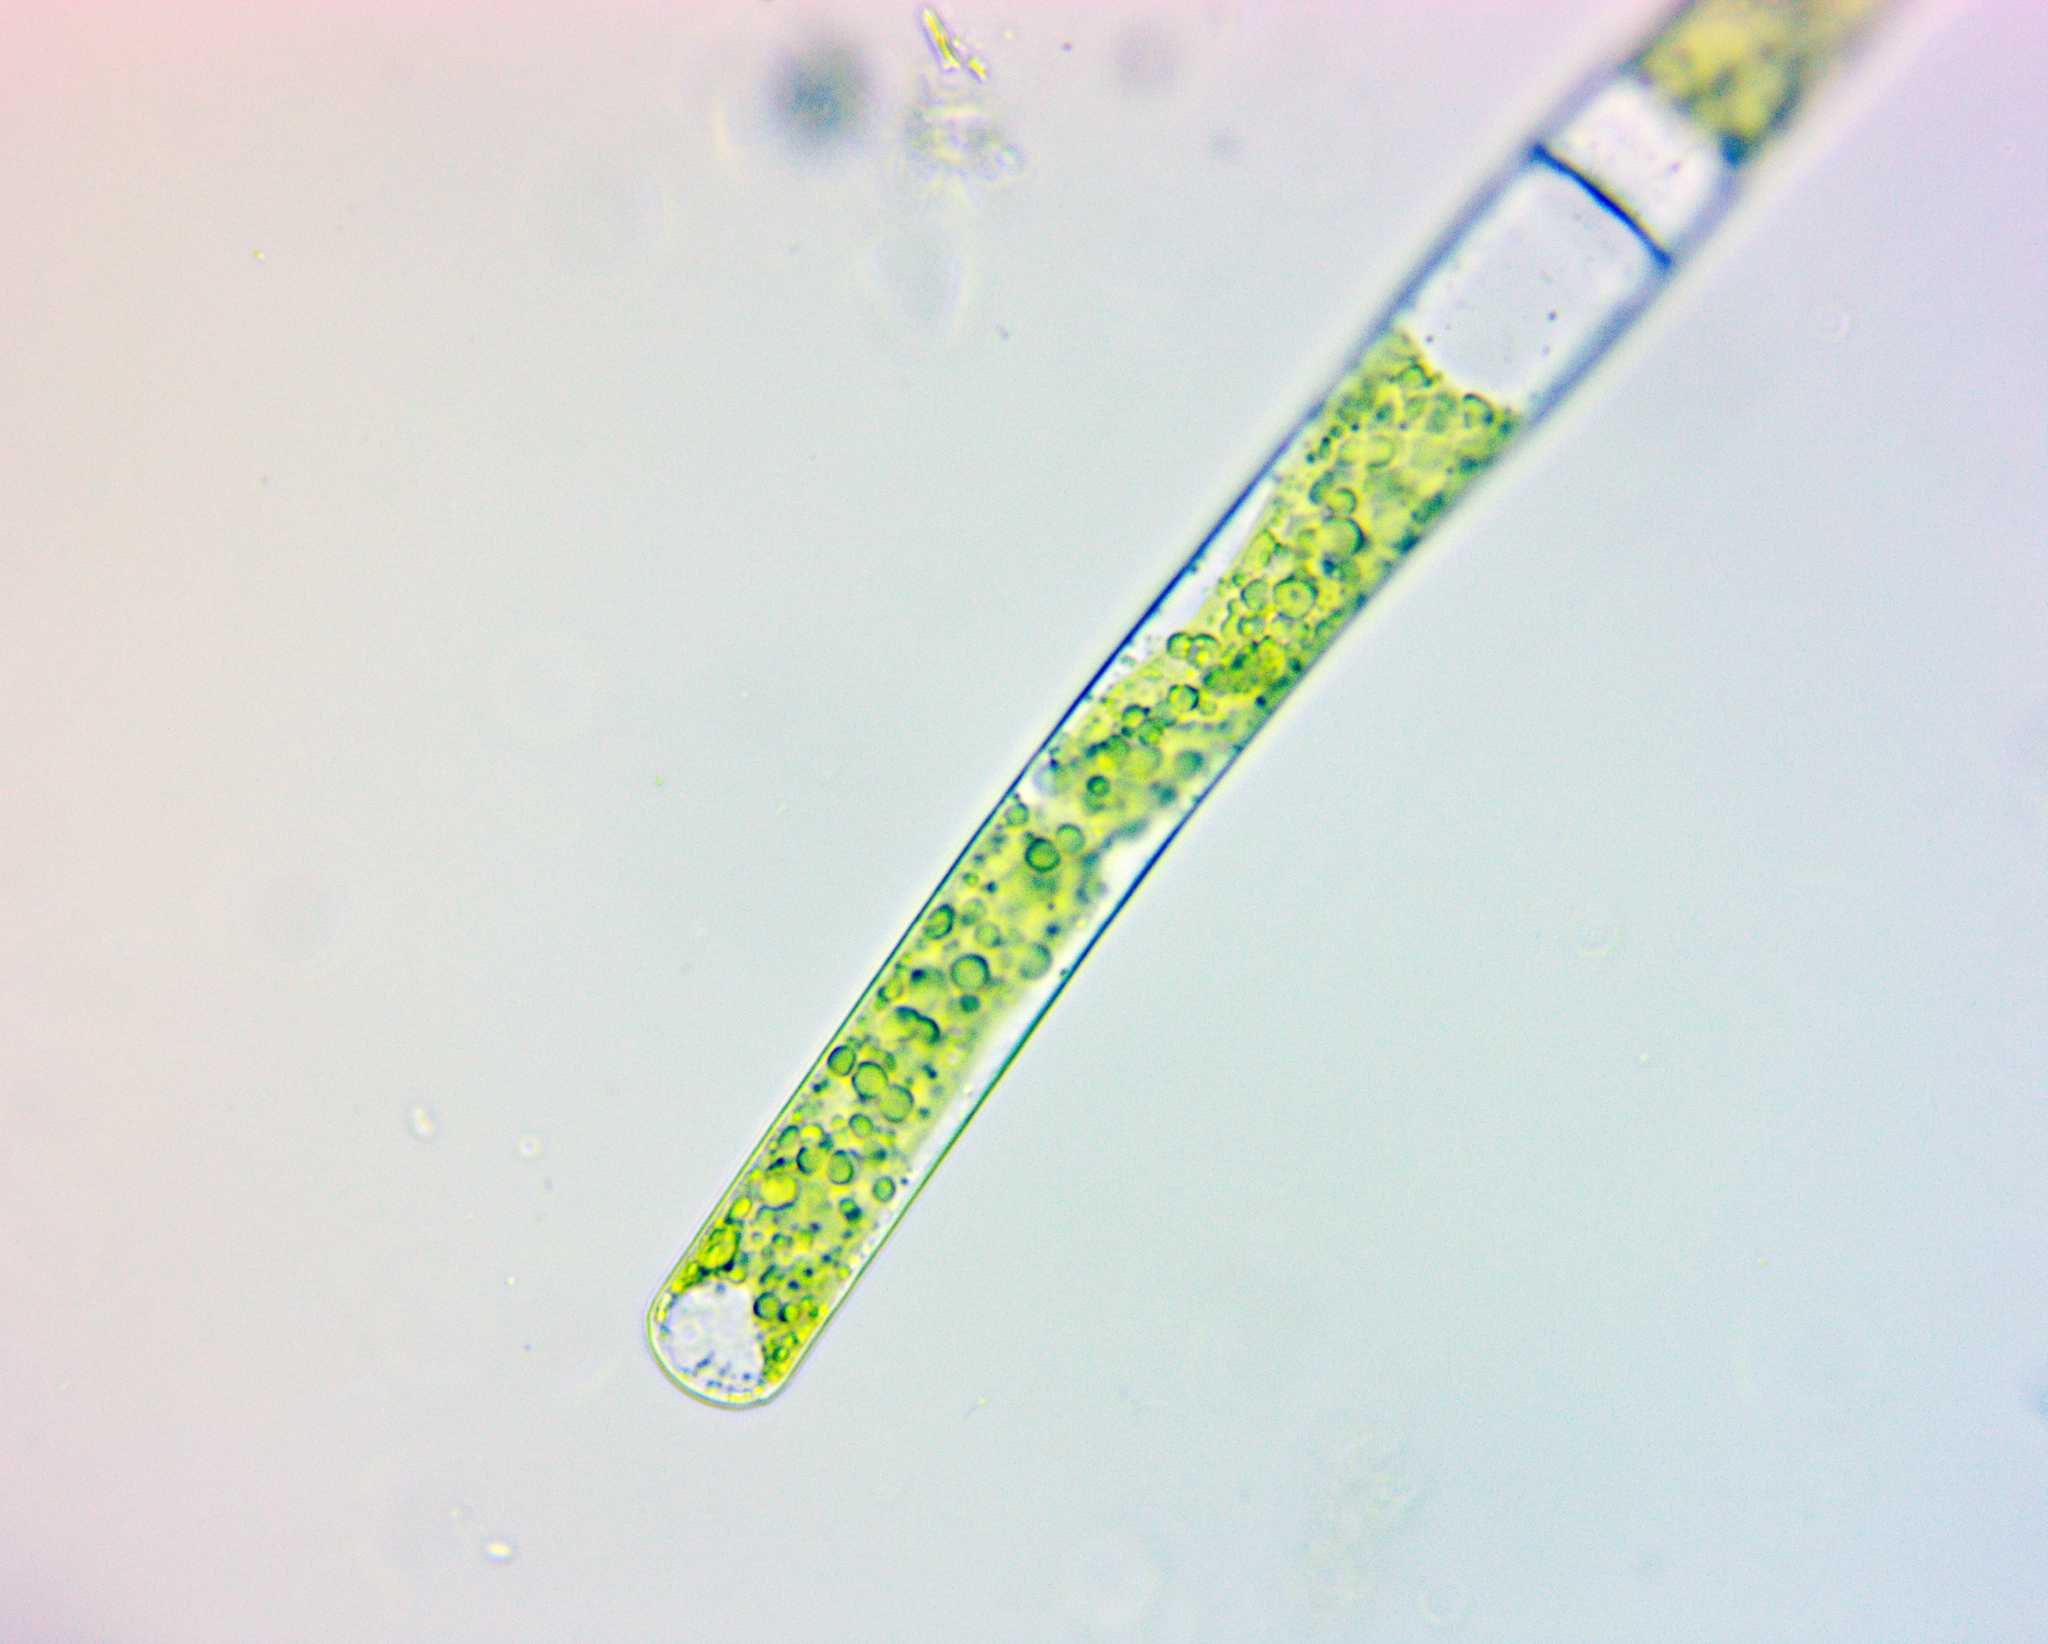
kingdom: Plantae
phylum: Charophyta
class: Zygnematophyceae
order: Zygnematales
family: Zygnemataceae
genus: Mougeotia
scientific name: Mougeotia
